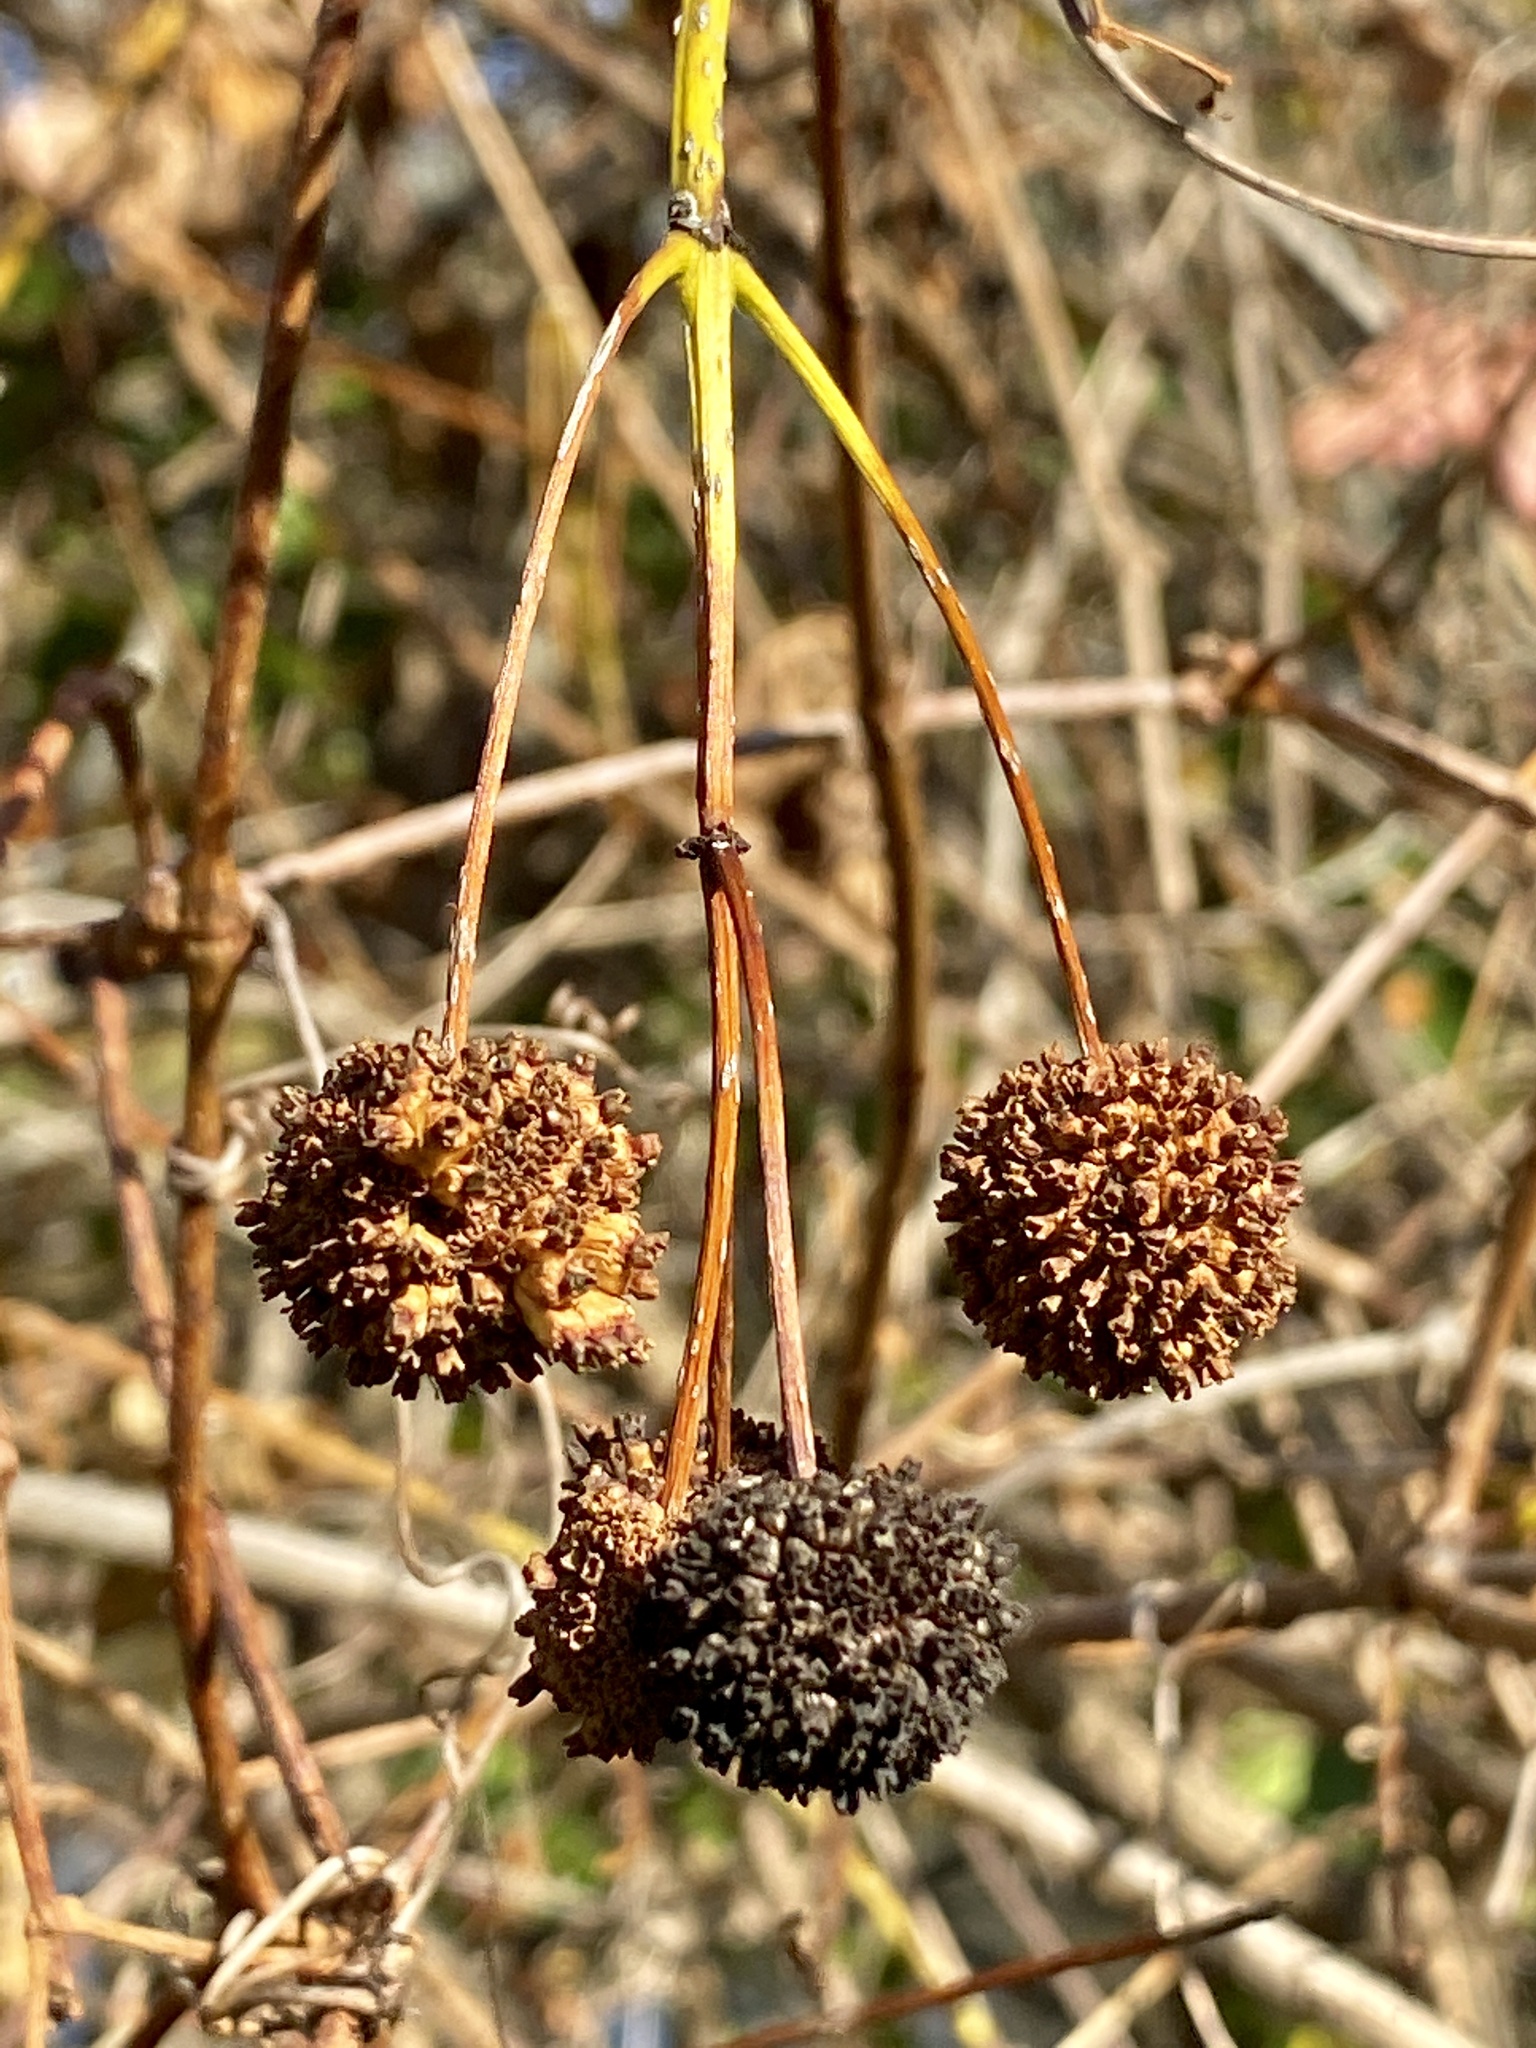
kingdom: Plantae
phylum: Tracheophyta
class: Magnoliopsida
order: Gentianales
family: Rubiaceae
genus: Cephalanthus
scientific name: Cephalanthus occidentalis
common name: Button-willow
